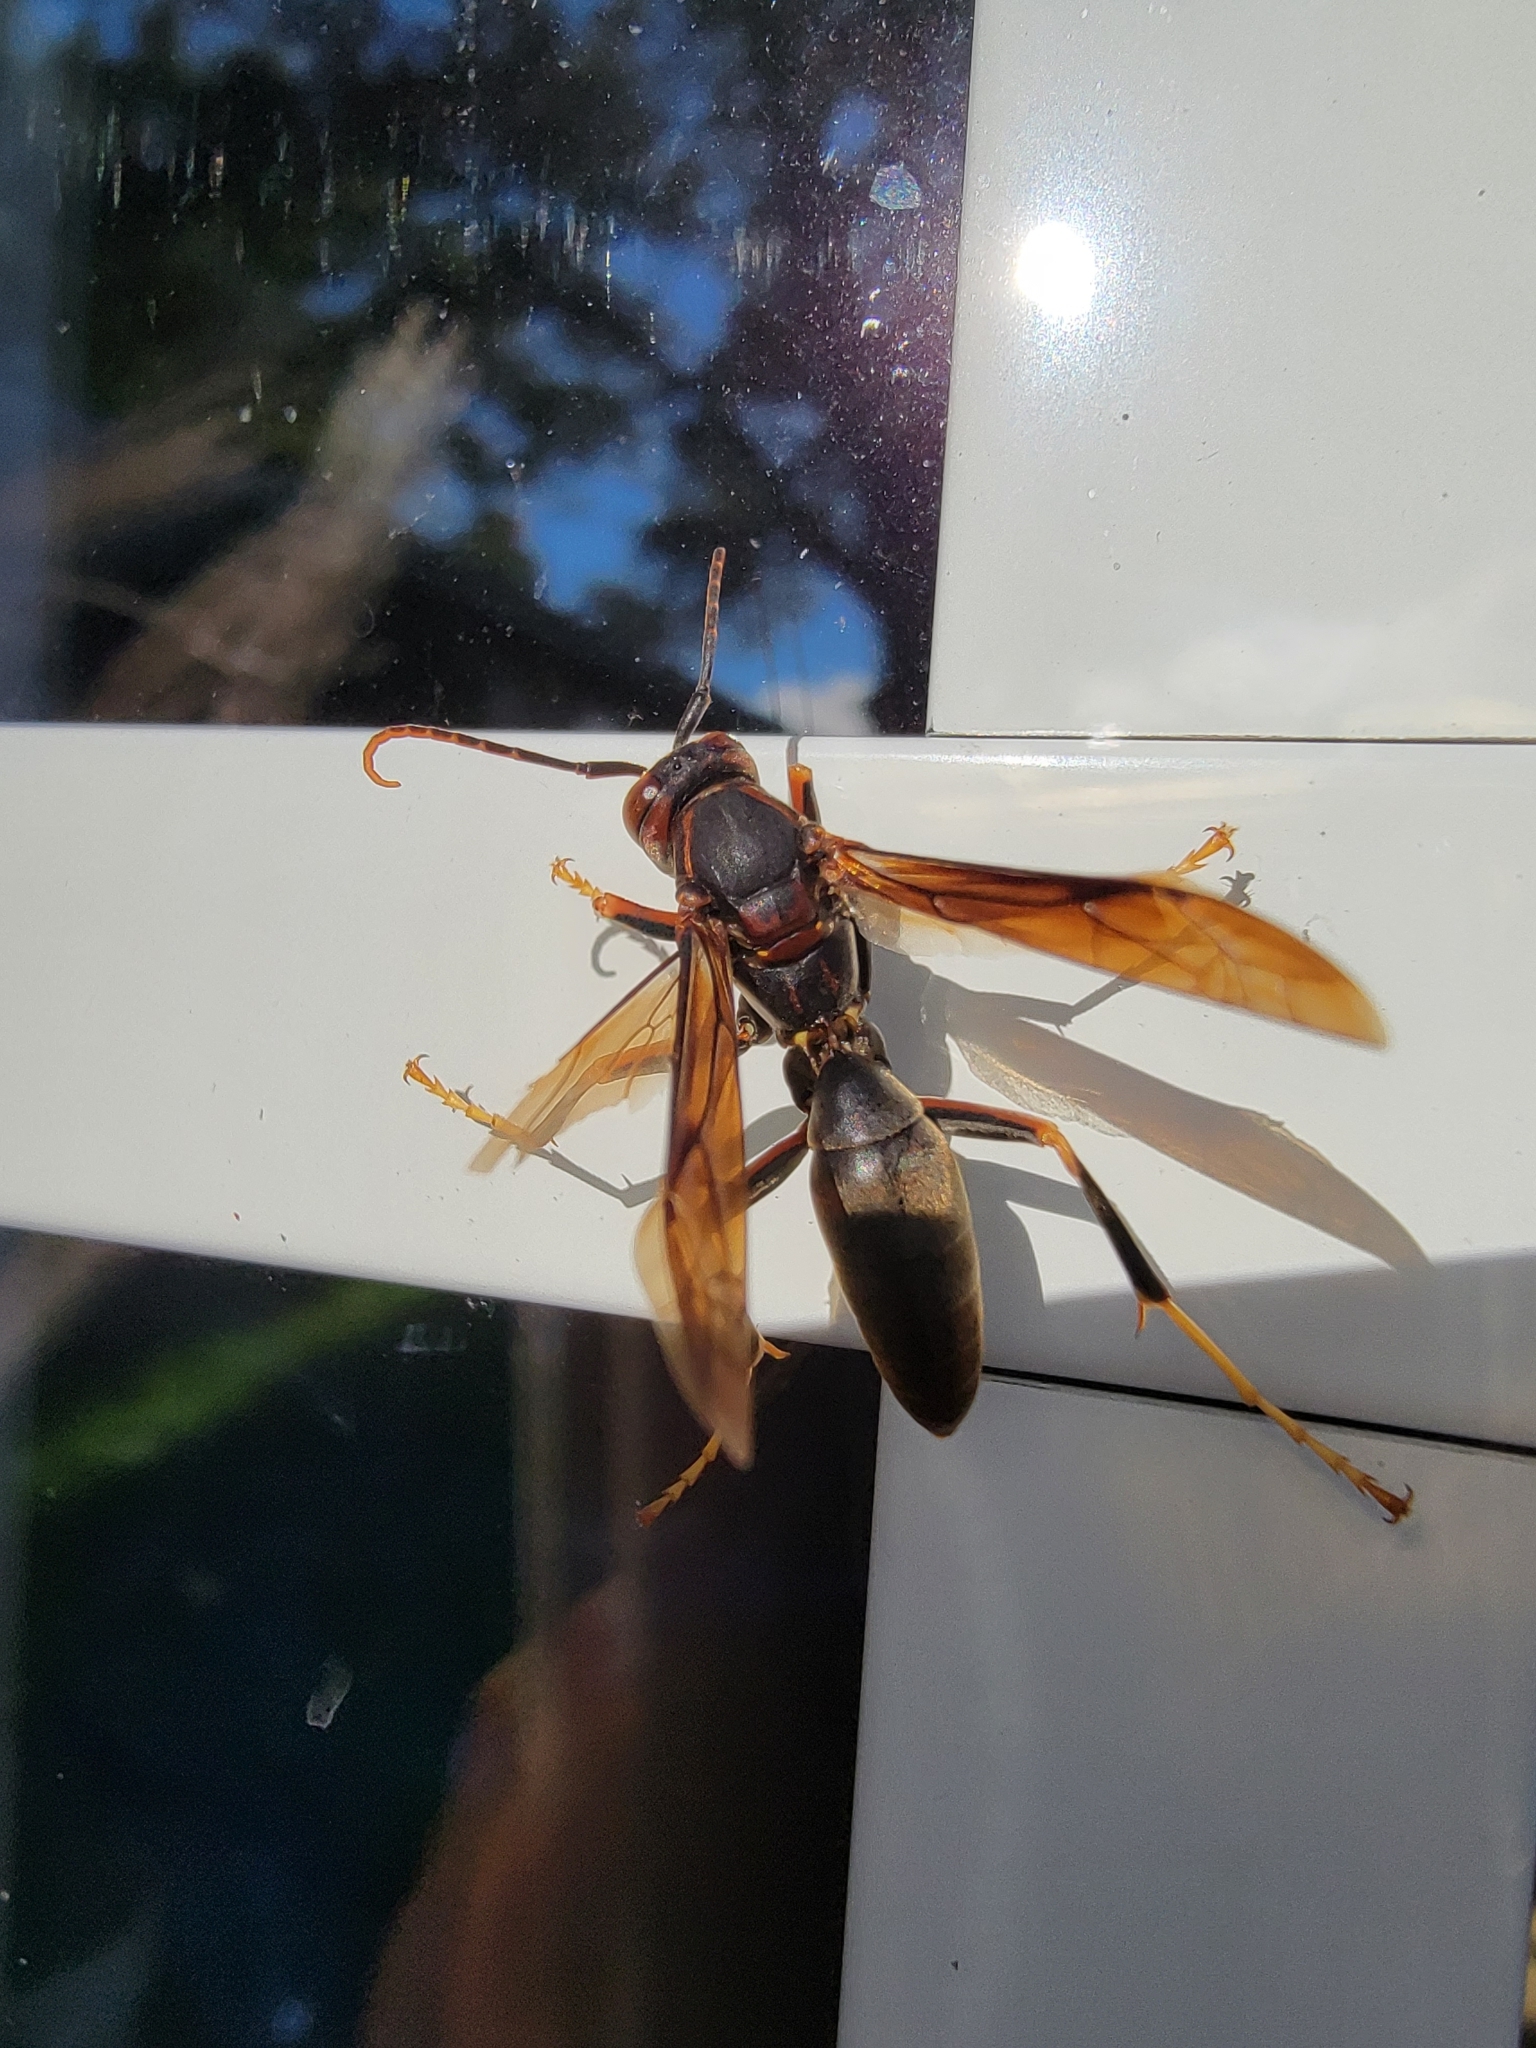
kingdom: Animalia
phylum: Arthropoda
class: Insecta
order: Hymenoptera
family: Eumenidae
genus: Polistes
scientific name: Polistes metricus
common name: Metric paper wasp
